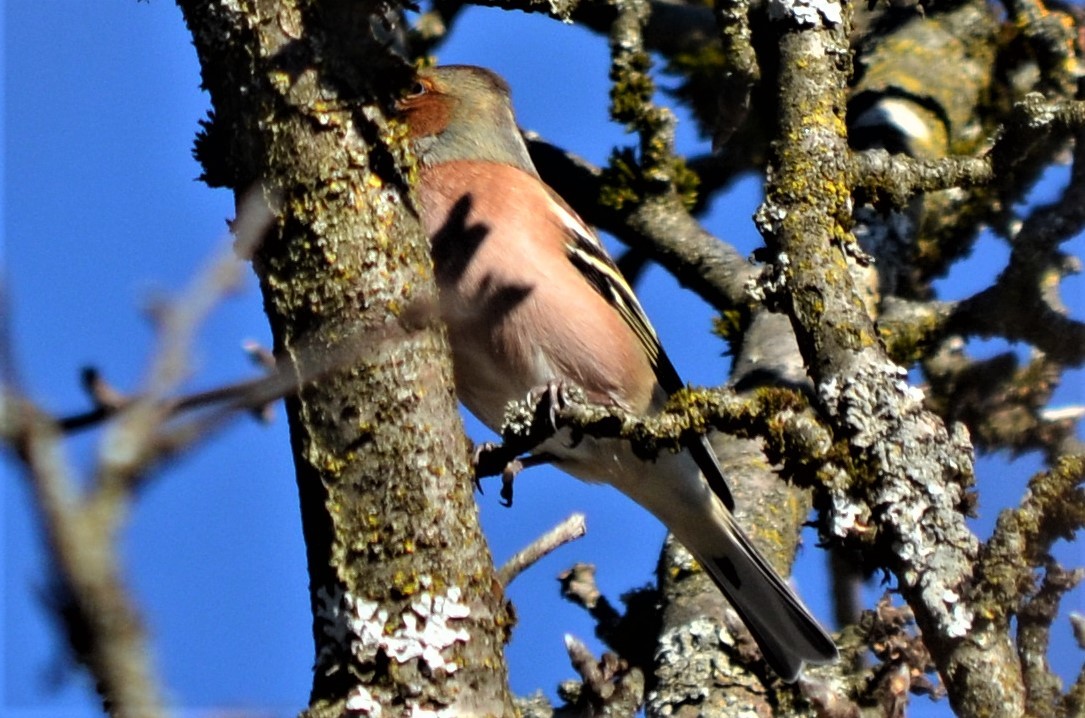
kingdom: Animalia
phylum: Chordata
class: Aves
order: Passeriformes
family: Fringillidae
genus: Fringilla
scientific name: Fringilla coelebs
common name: Common chaffinch
